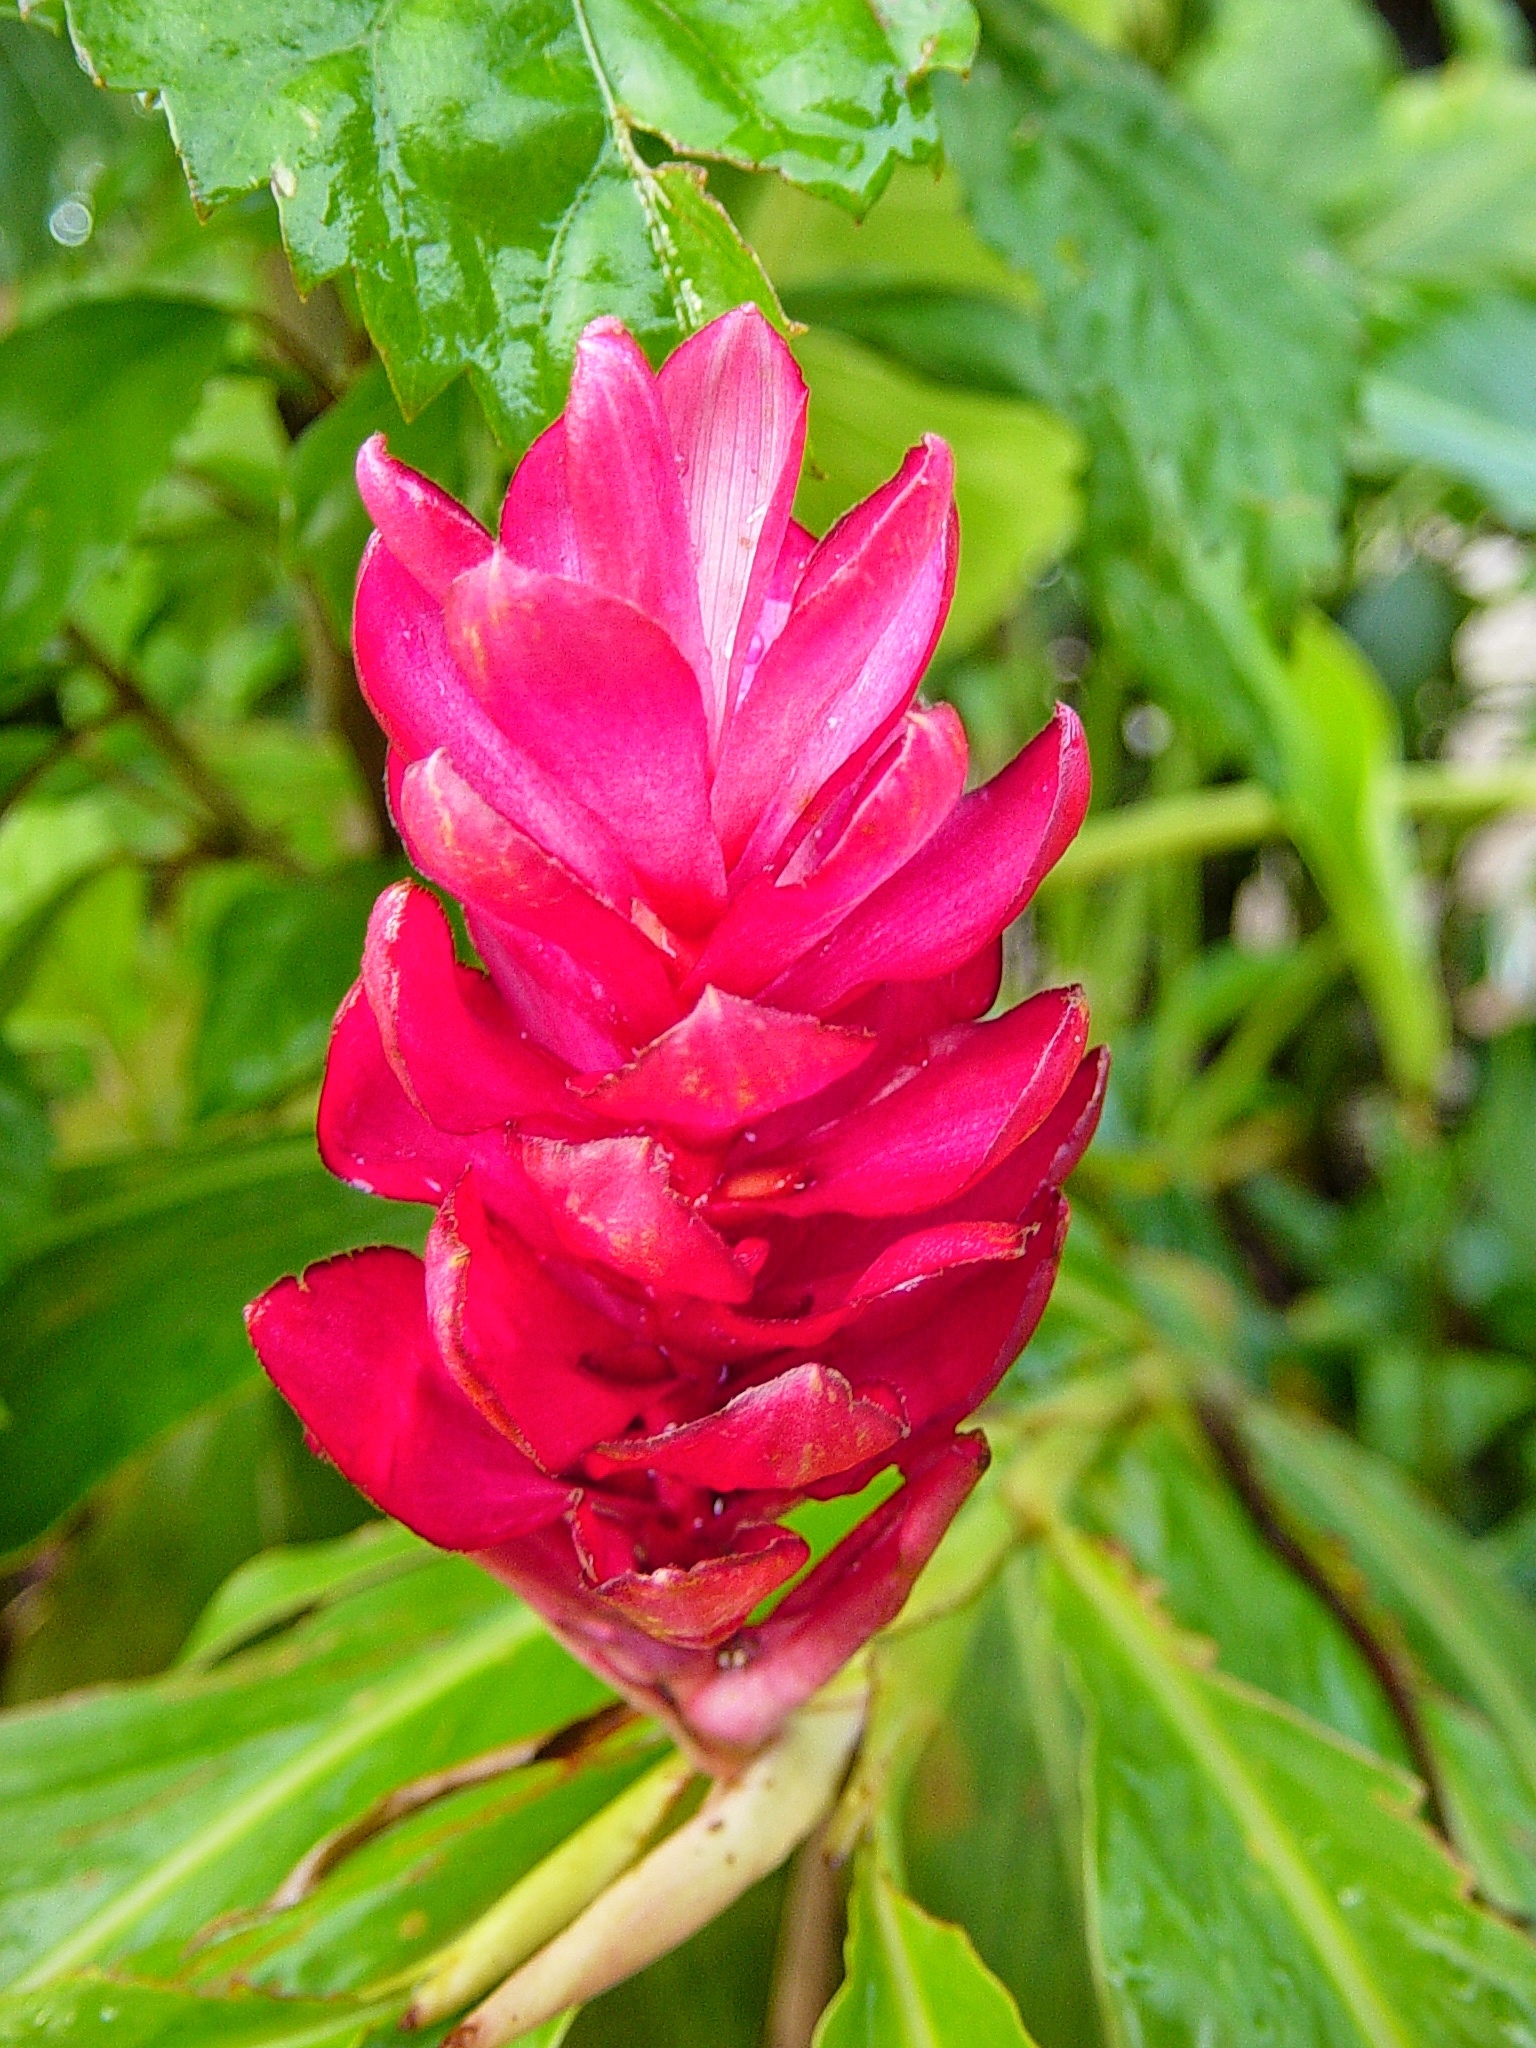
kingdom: Plantae
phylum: Tracheophyta
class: Liliopsida
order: Zingiberales
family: Zingiberaceae
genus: Alpinia
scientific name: Alpinia purpurata
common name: Red ginger
